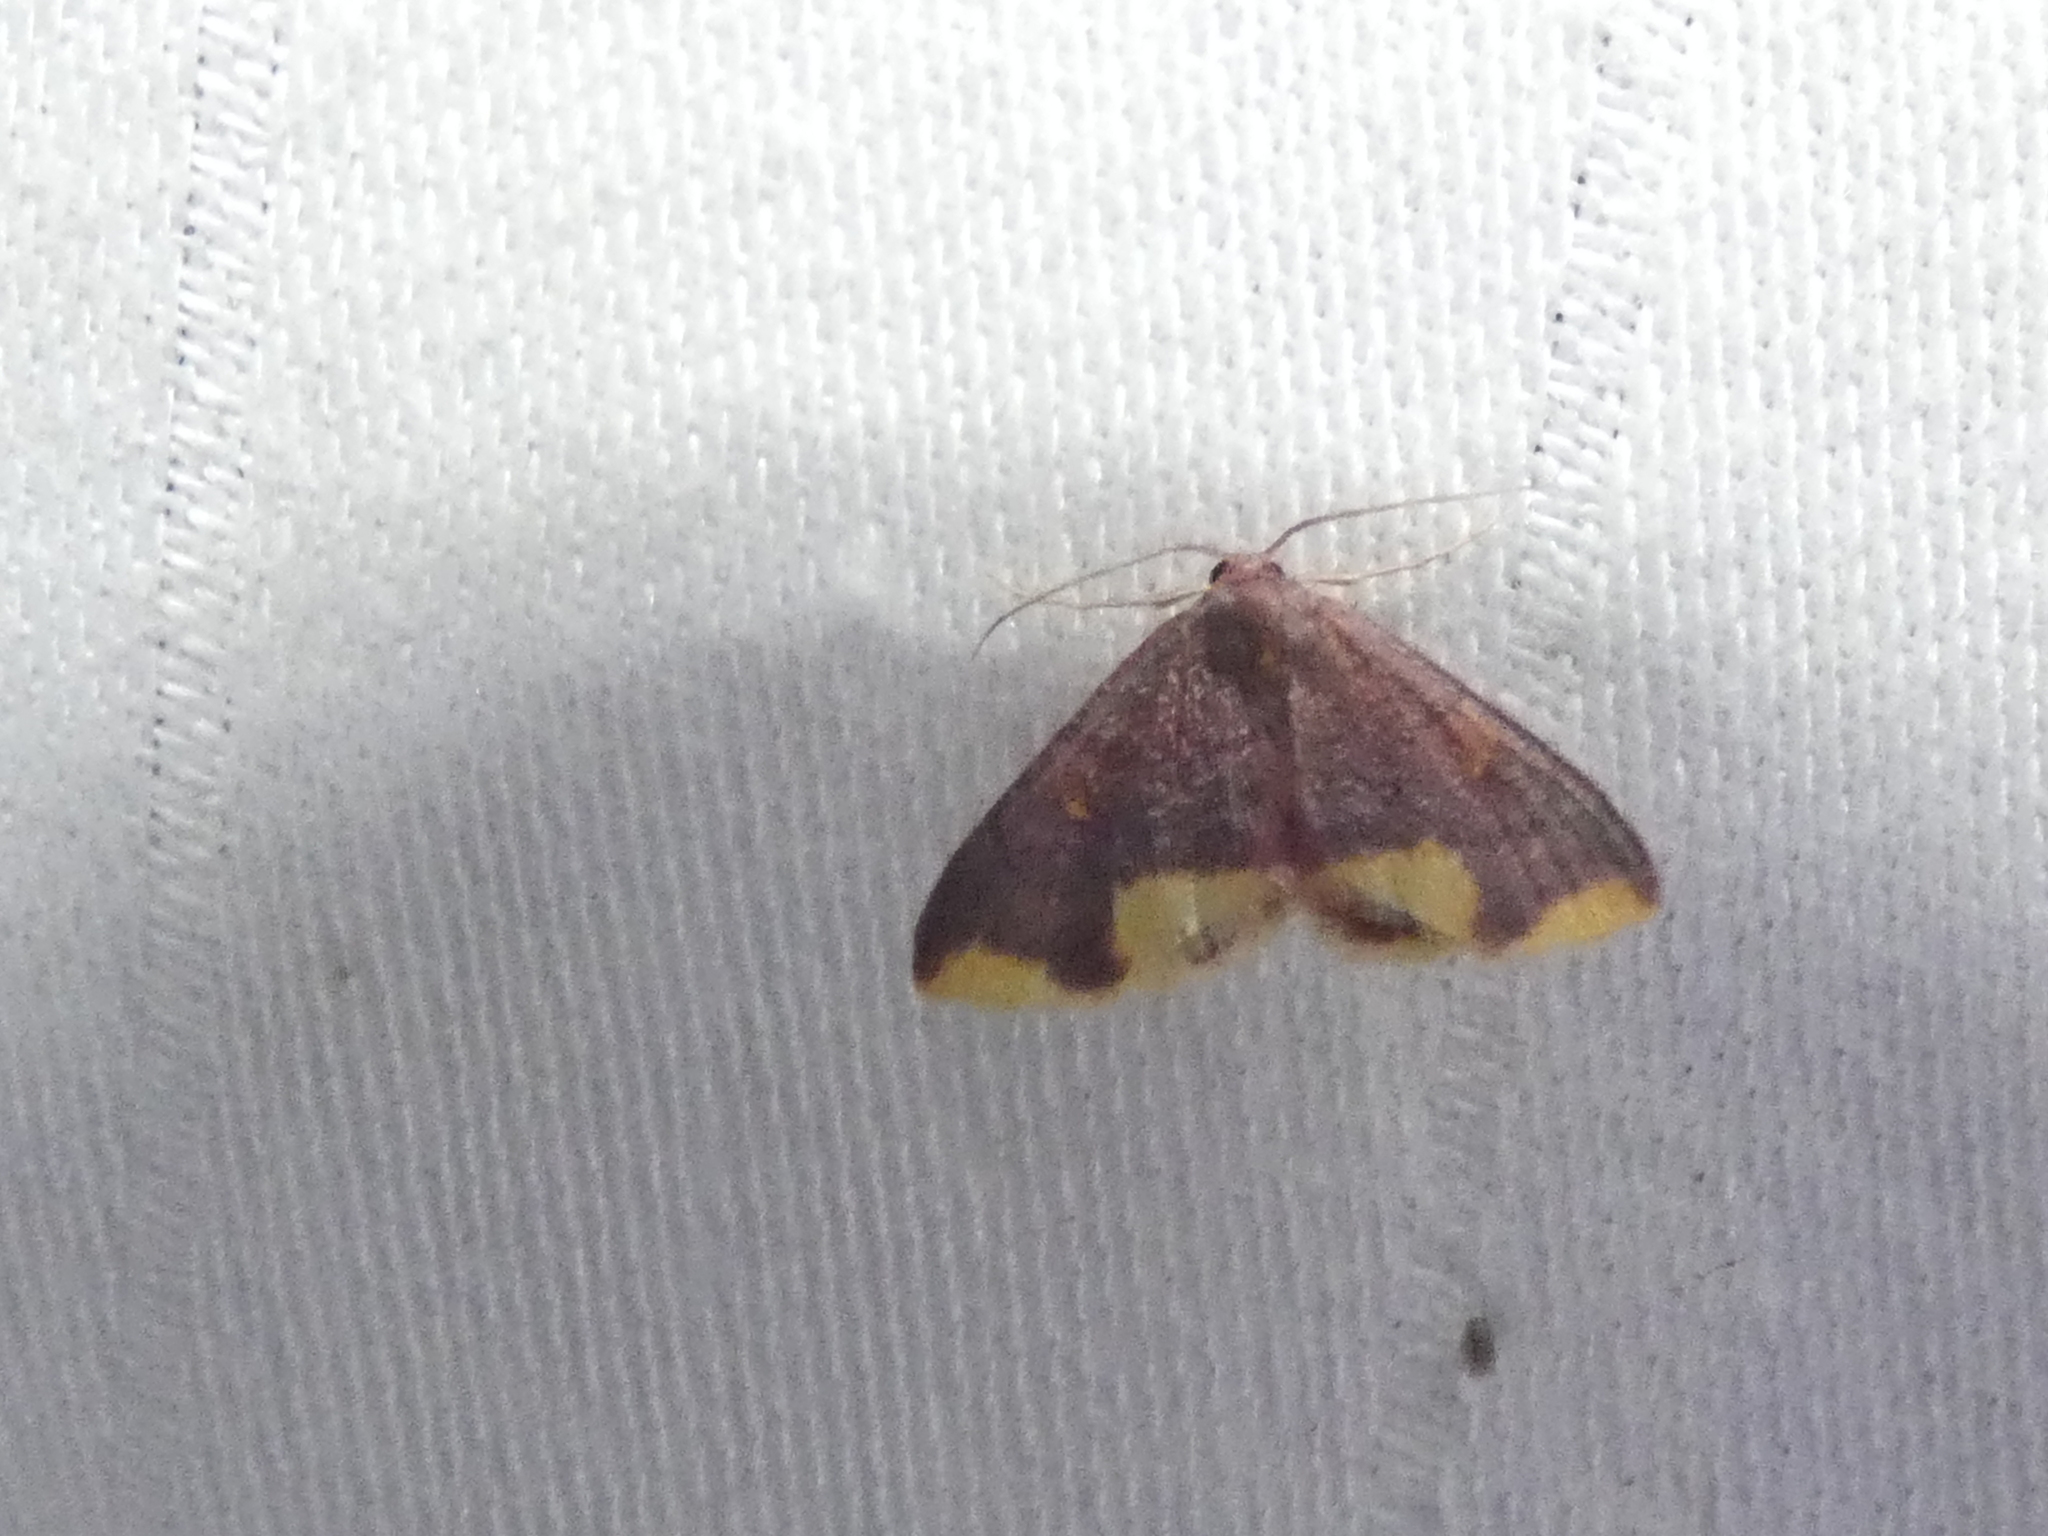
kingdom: Animalia
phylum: Arthropoda
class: Insecta
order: Lepidoptera
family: Geometridae
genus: Lophosis
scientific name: Lophosis labeculata
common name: Stained lophosis moth
